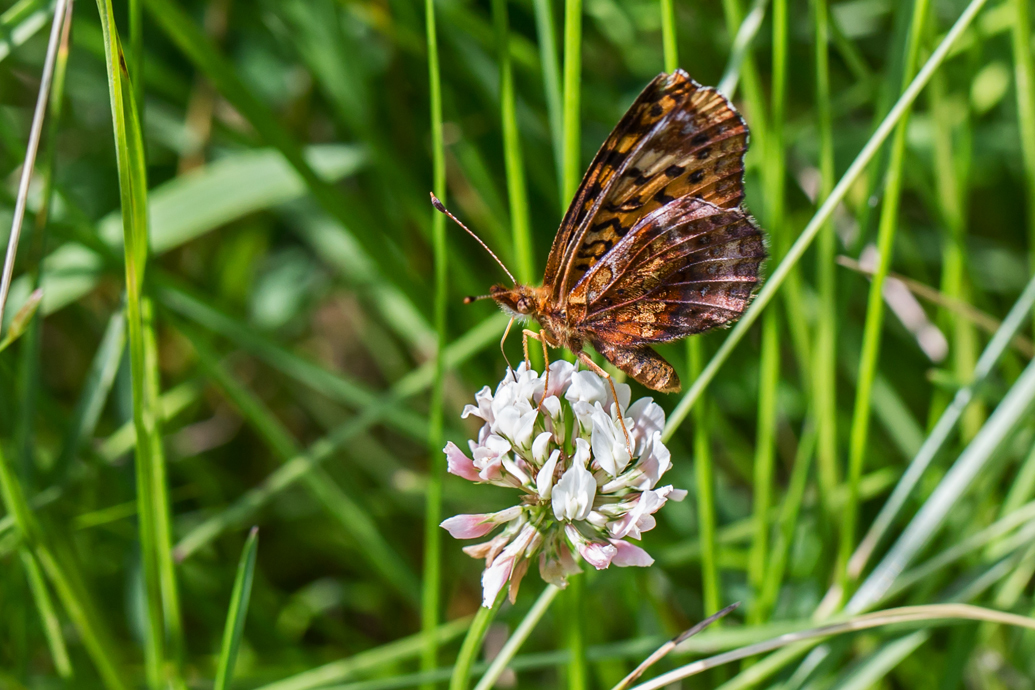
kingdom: Animalia
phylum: Arthropoda
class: Insecta
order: Lepidoptera
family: Nymphalidae
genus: Clossiana
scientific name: Clossiana toddi
